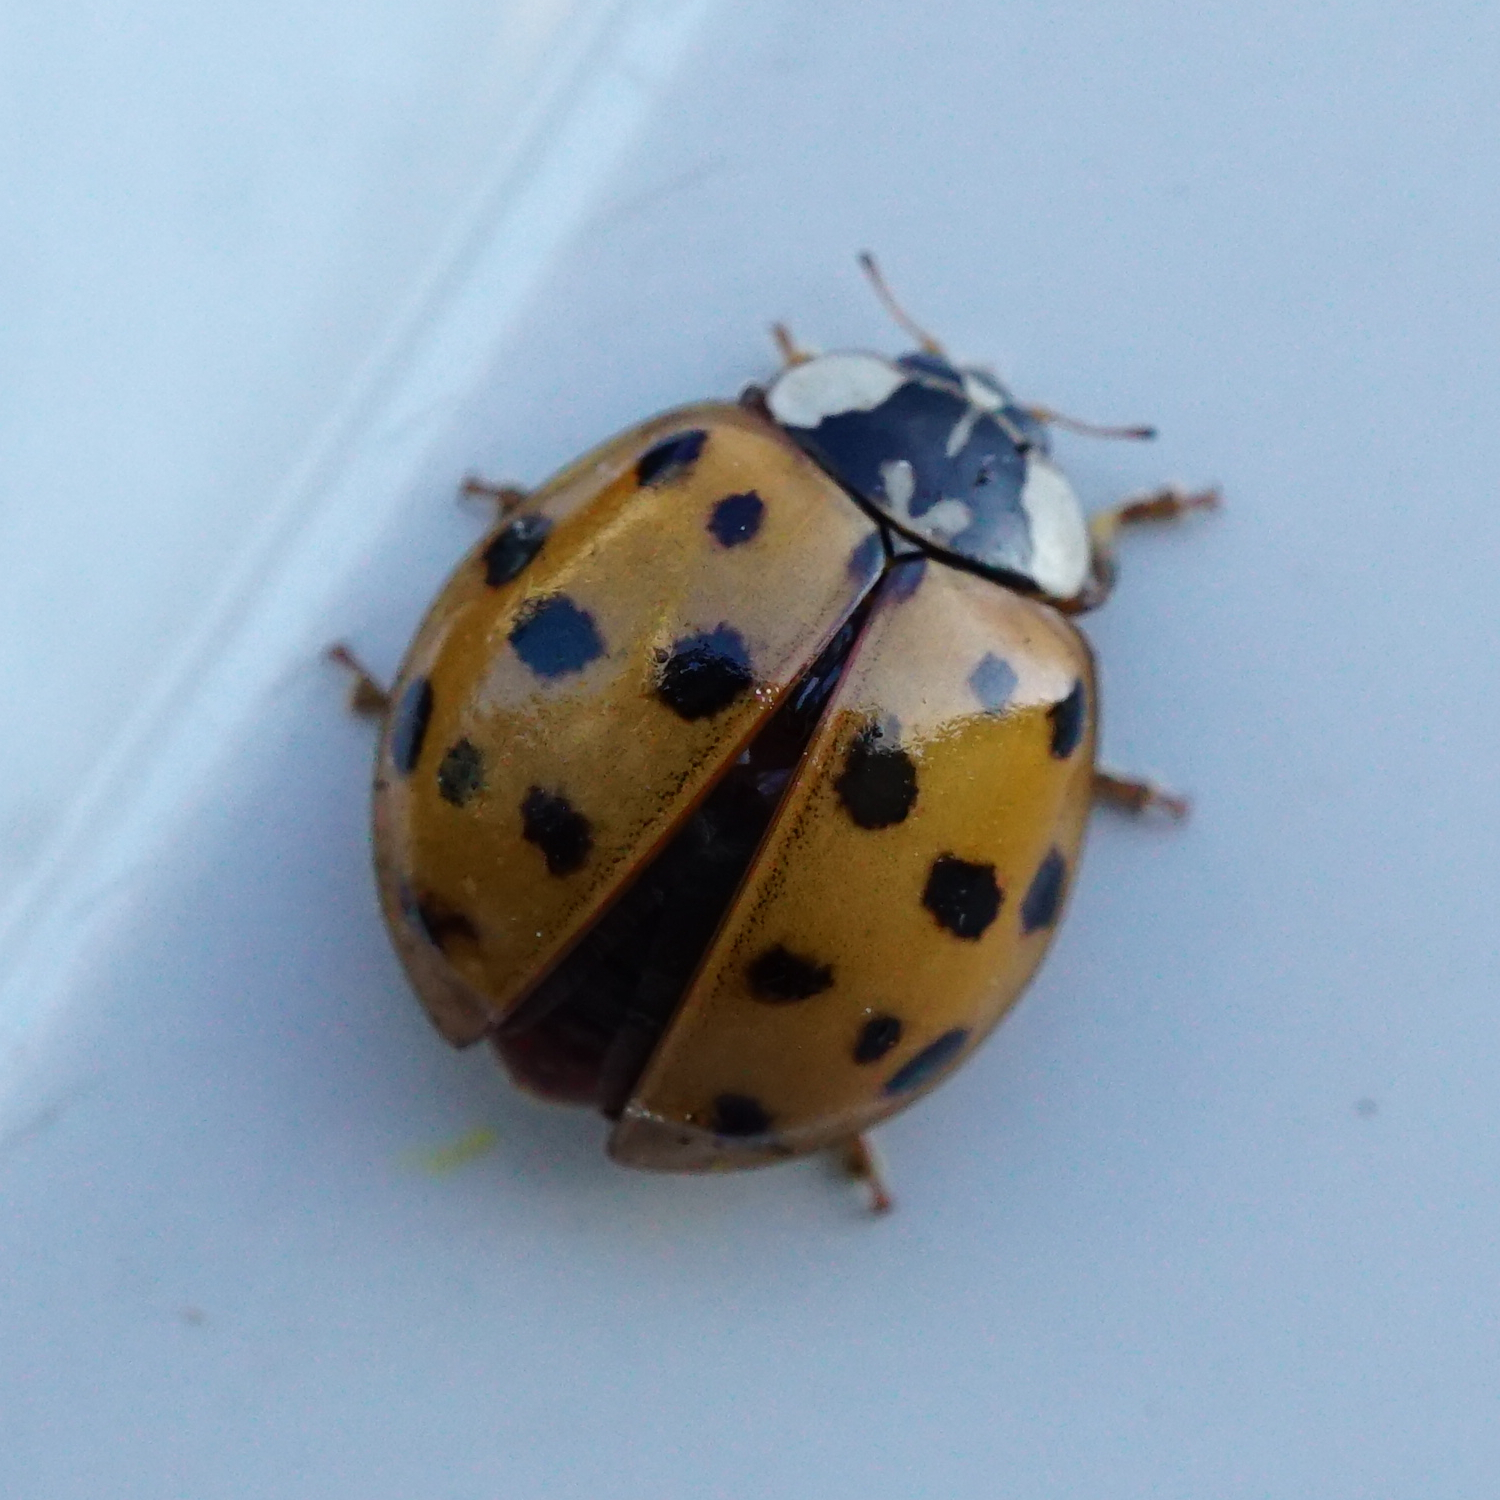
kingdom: Animalia
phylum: Arthropoda
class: Insecta
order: Coleoptera
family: Coccinellidae
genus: Harmonia
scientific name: Harmonia axyridis
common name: Harlequin ladybird
